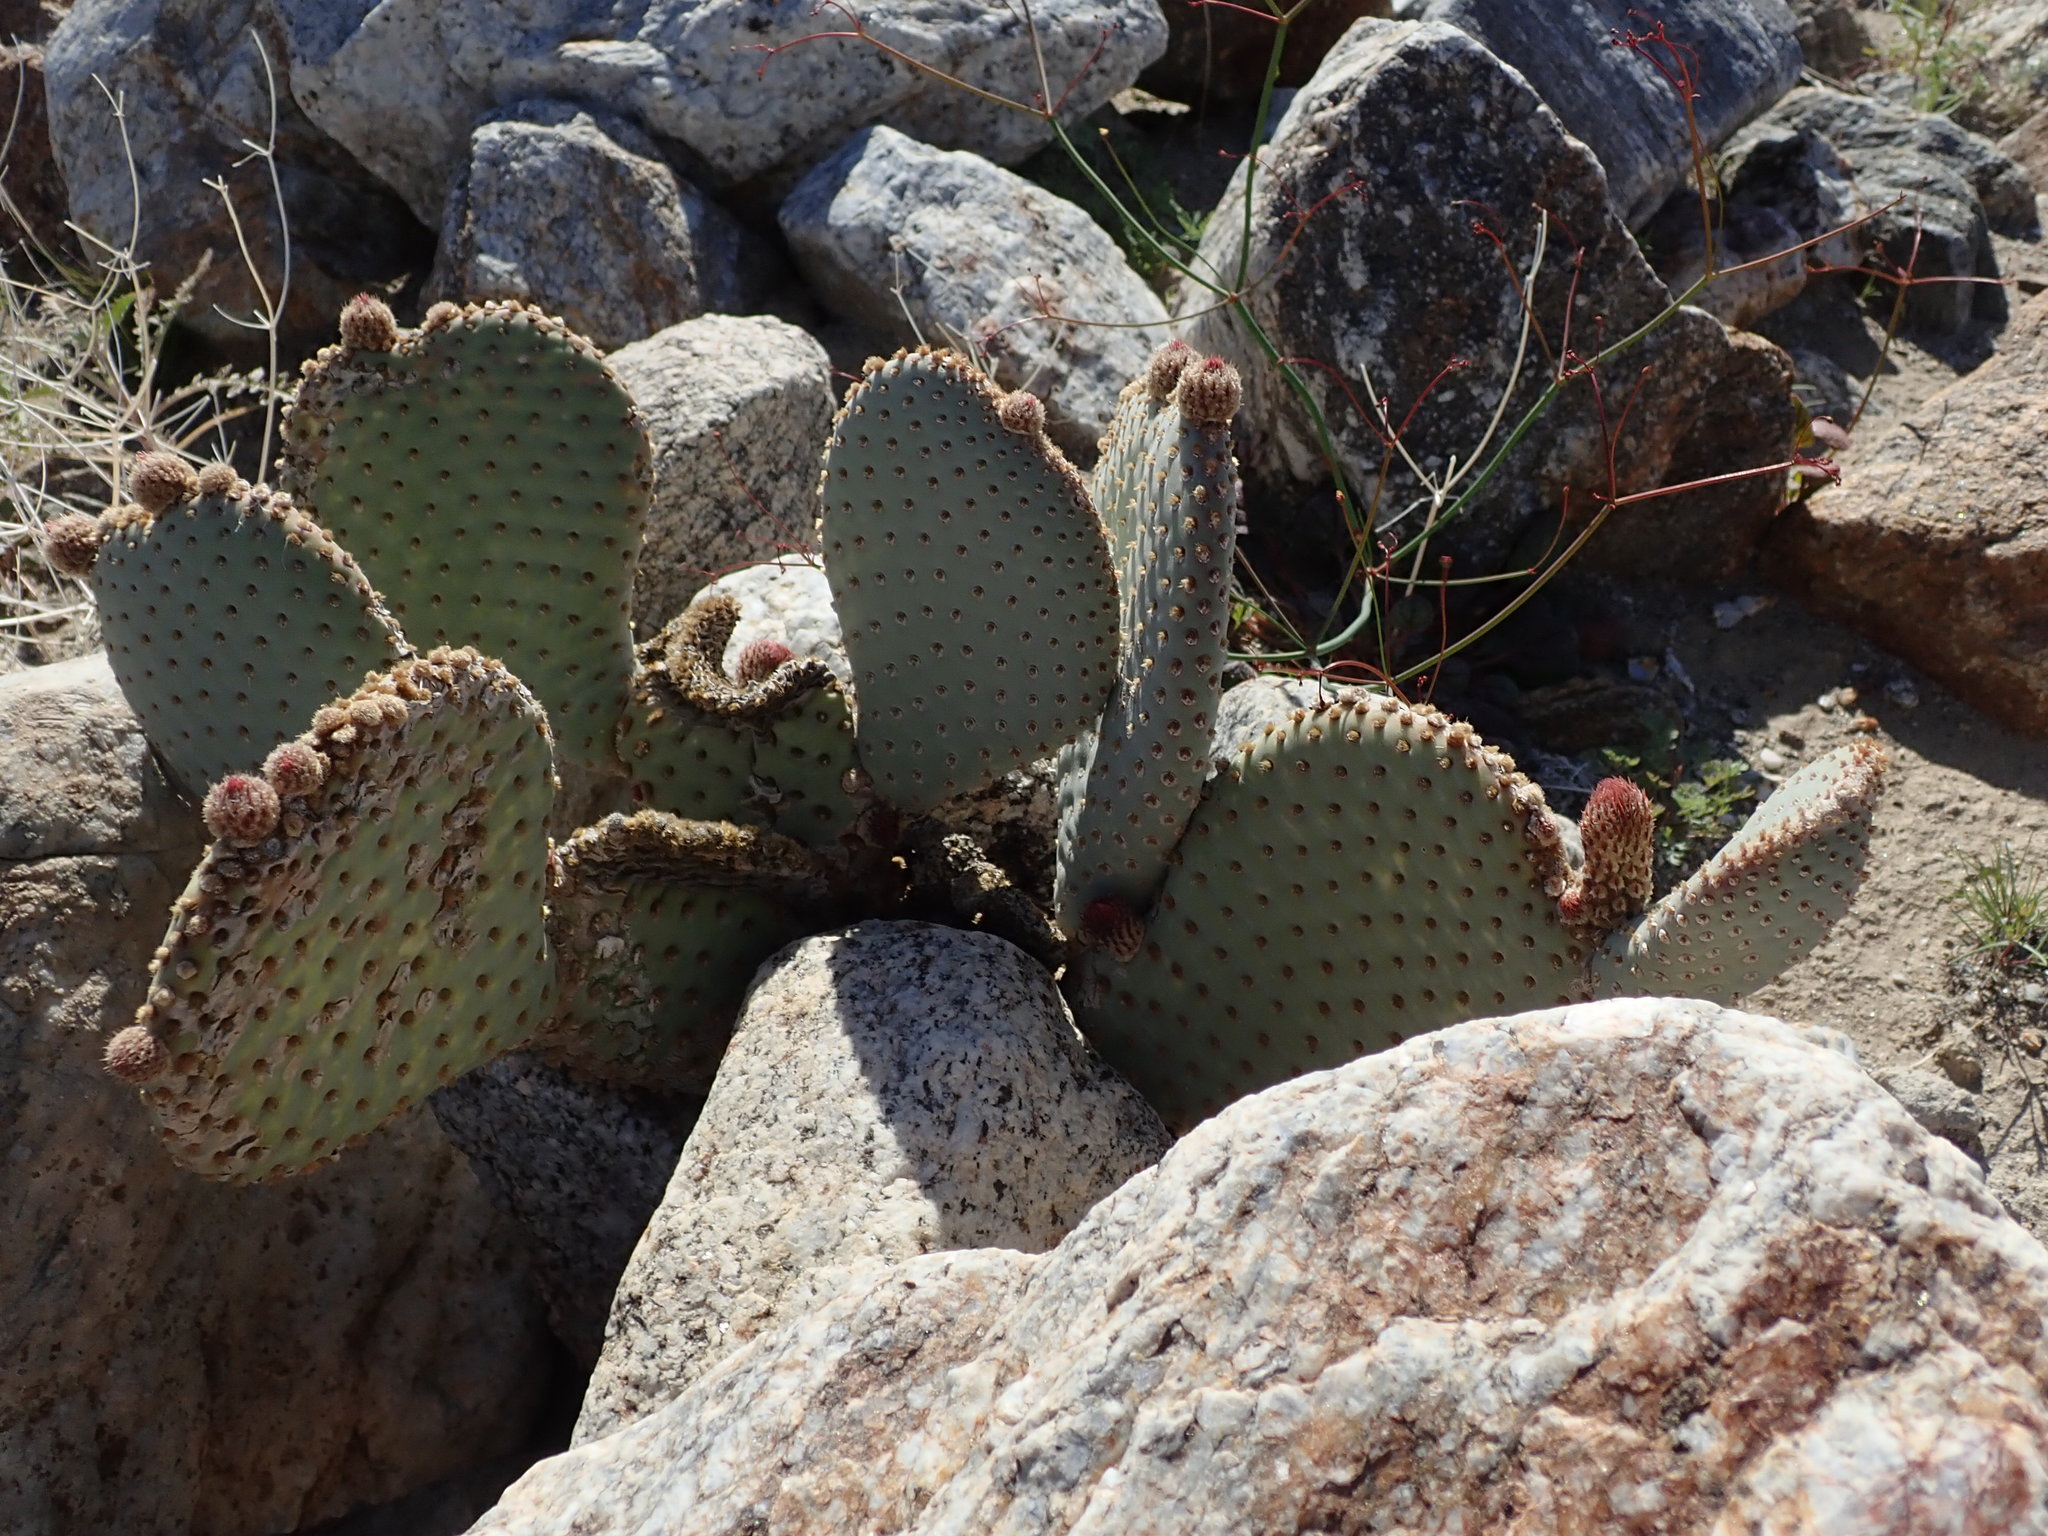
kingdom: Plantae
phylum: Tracheophyta
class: Magnoliopsida
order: Caryophyllales
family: Cactaceae
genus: Opuntia
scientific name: Opuntia basilaris
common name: Beavertail prickly-pear
